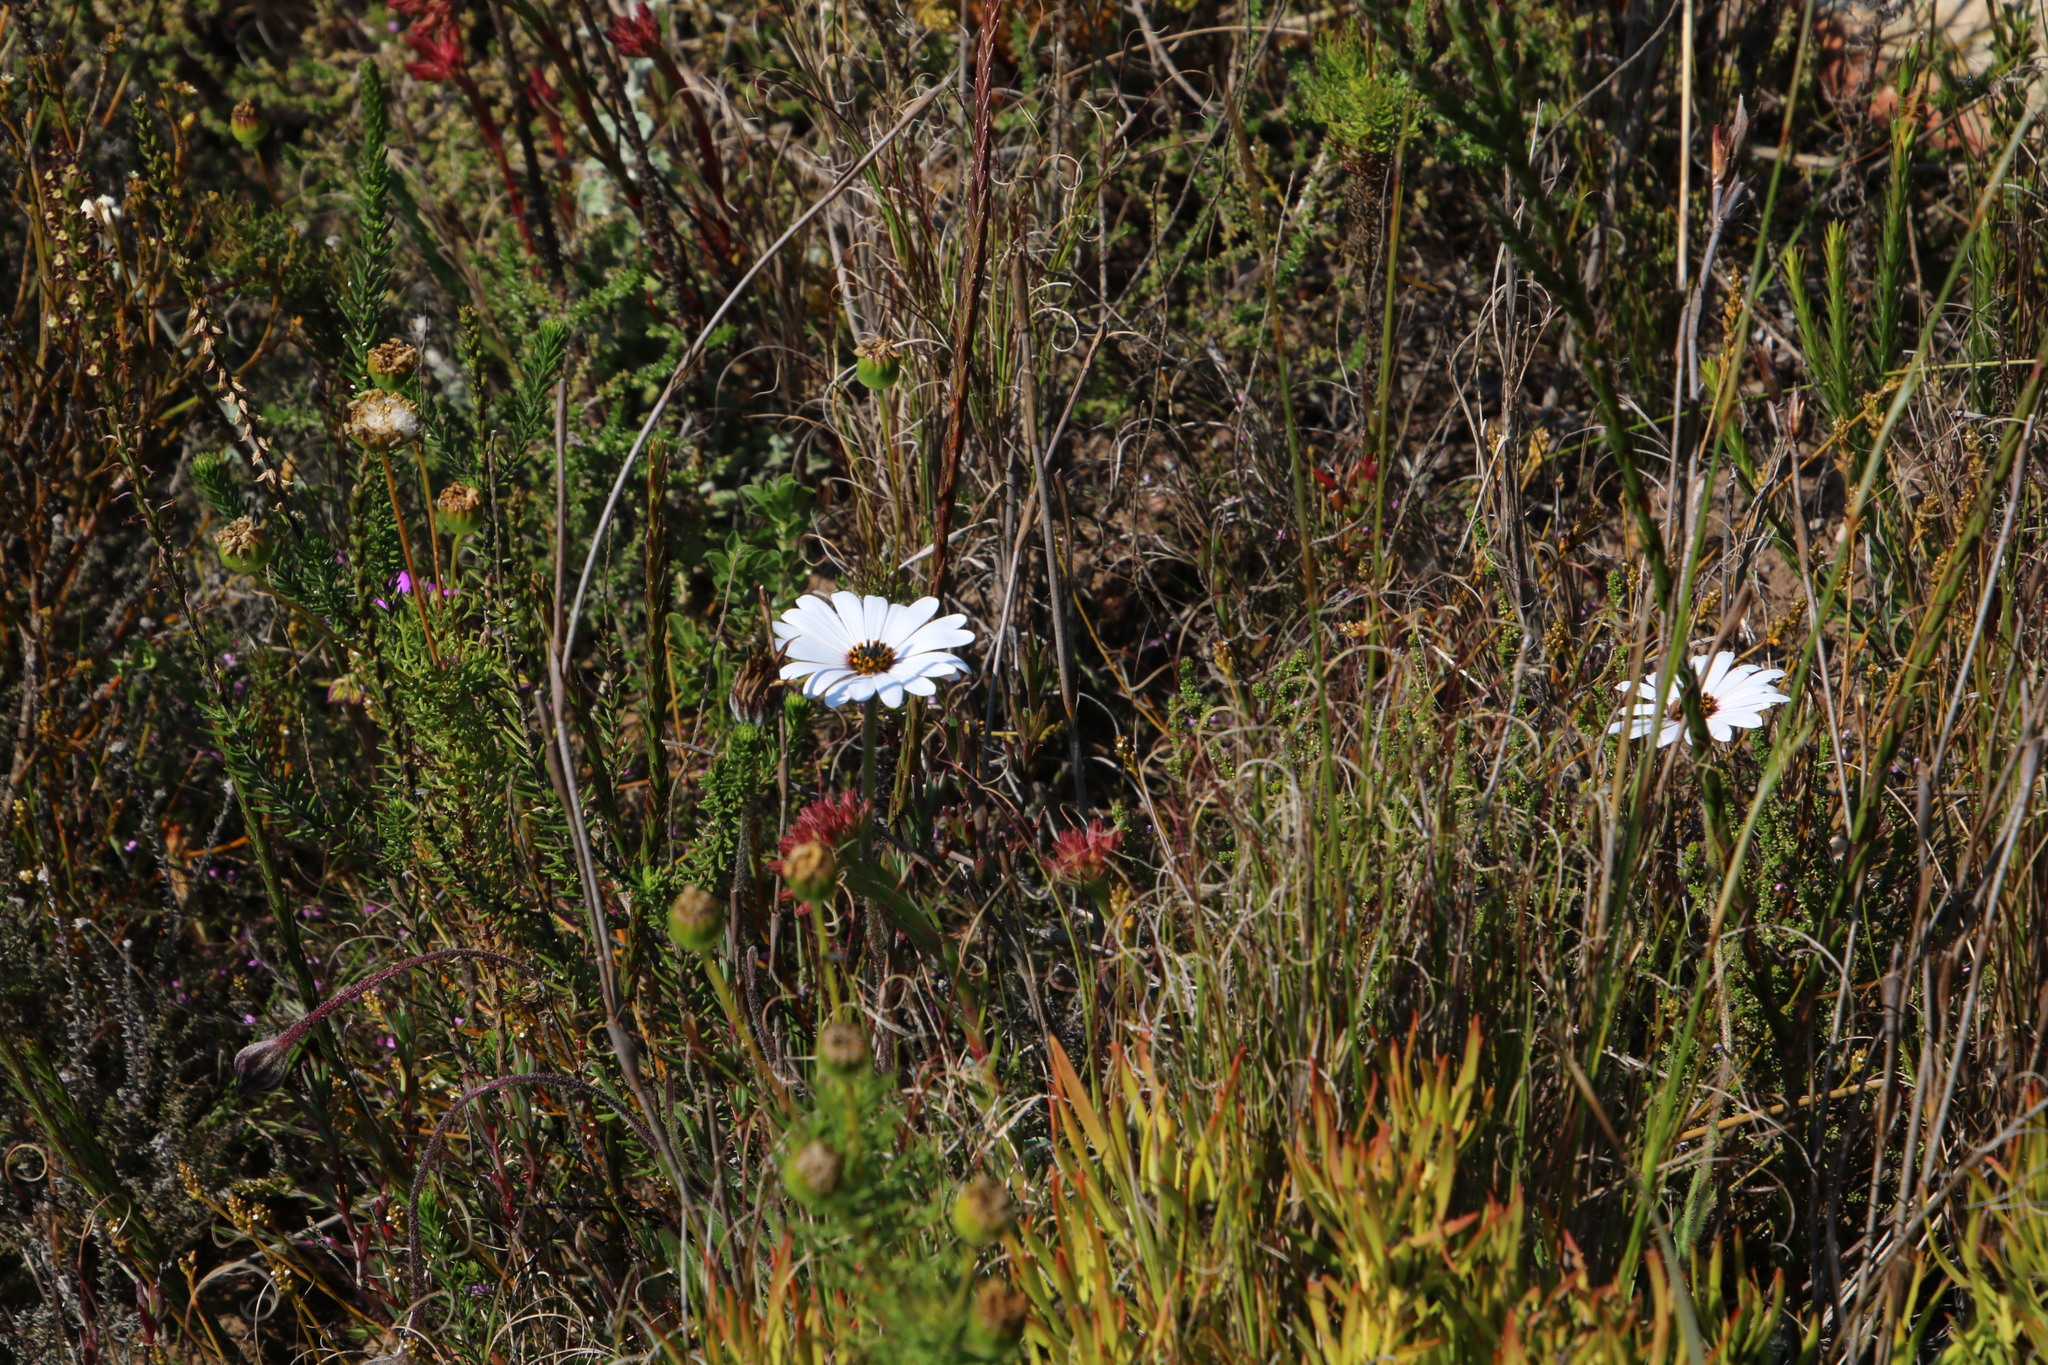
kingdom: Plantae
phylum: Tracheophyta
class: Magnoliopsida
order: Asterales
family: Asteraceae
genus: Dimorphotheca
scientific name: Dimorphotheca nudicaulis
